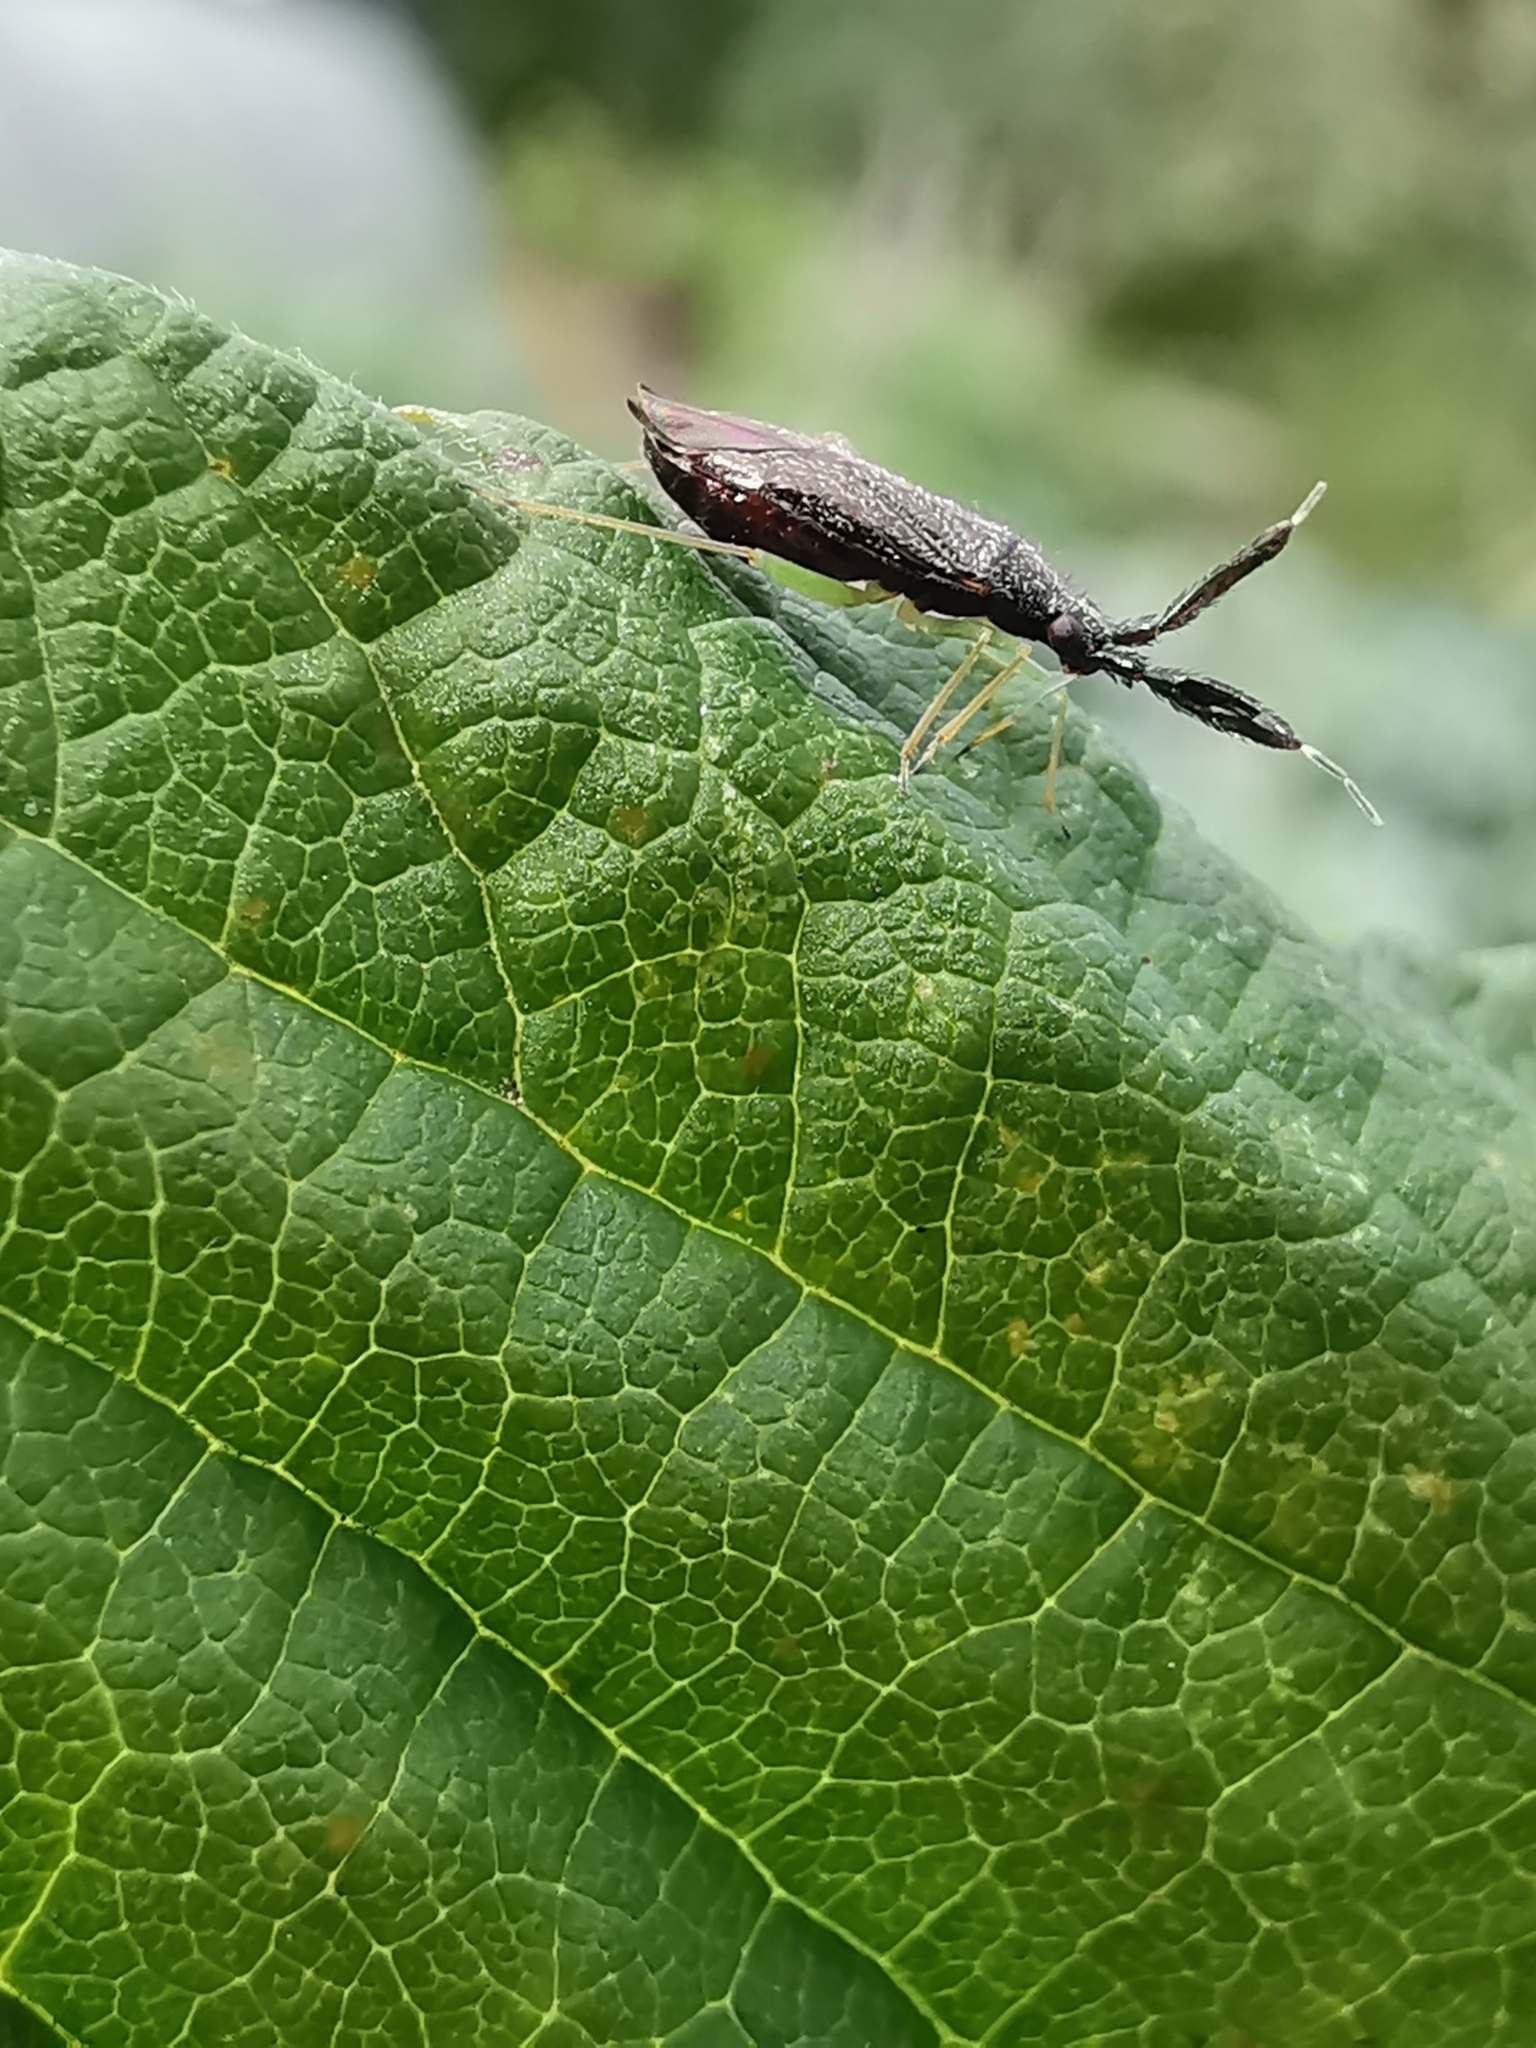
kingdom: Animalia
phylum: Arthropoda
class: Insecta
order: Hemiptera
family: Miridae
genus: Heterotoma
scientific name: Heterotoma planicornis
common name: Plant bug
